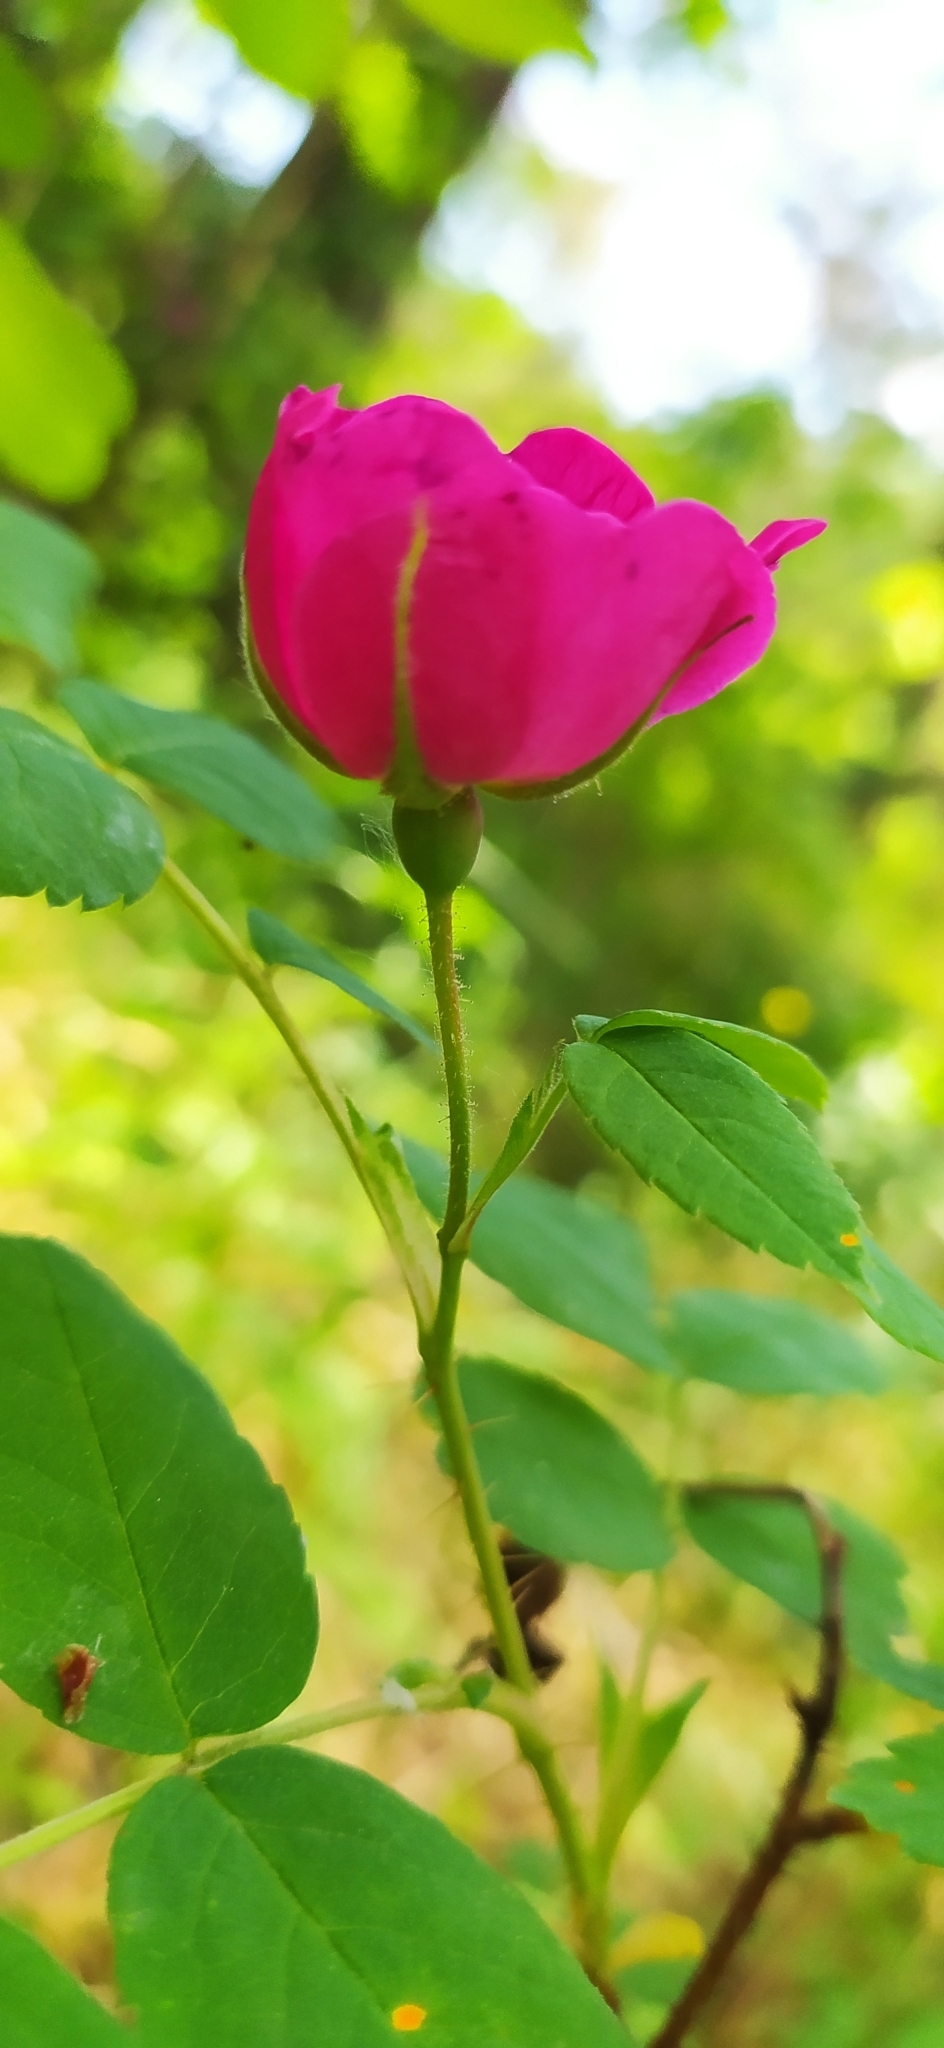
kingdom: Plantae
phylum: Tracheophyta
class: Magnoliopsida
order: Rosales
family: Rosaceae
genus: Rosa
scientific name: Rosa acicularis
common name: Prickly rose
